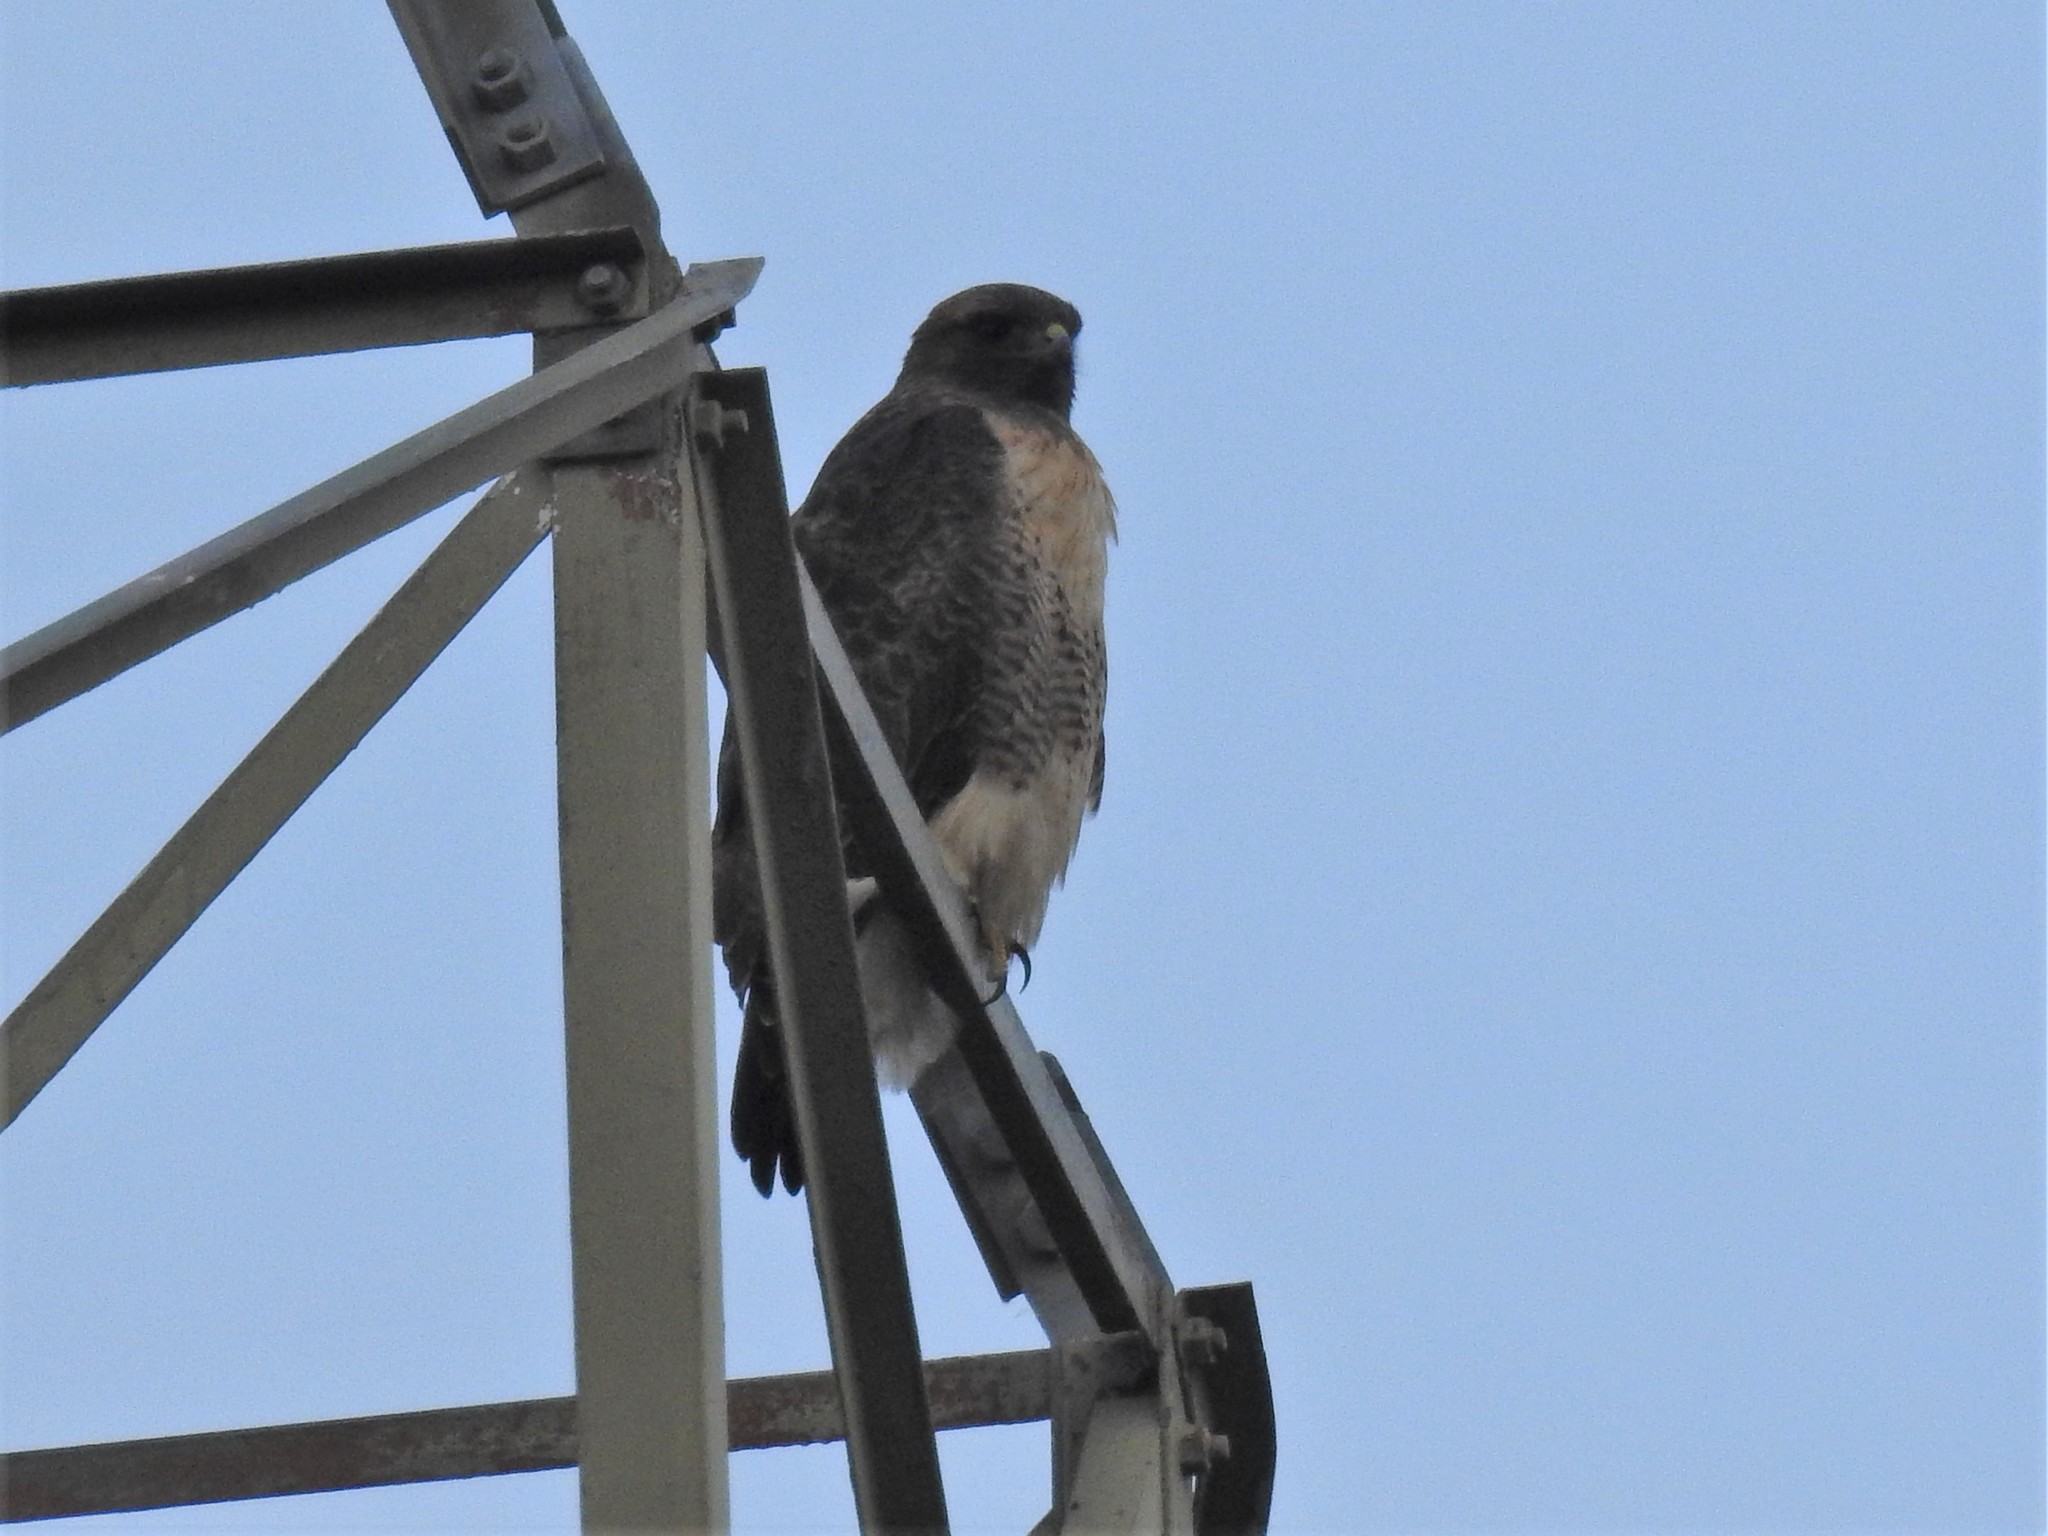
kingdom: Animalia
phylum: Chordata
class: Aves
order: Accipitriformes
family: Accipitridae
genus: Buteo
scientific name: Buteo jamaicensis
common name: Red-tailed hawk
